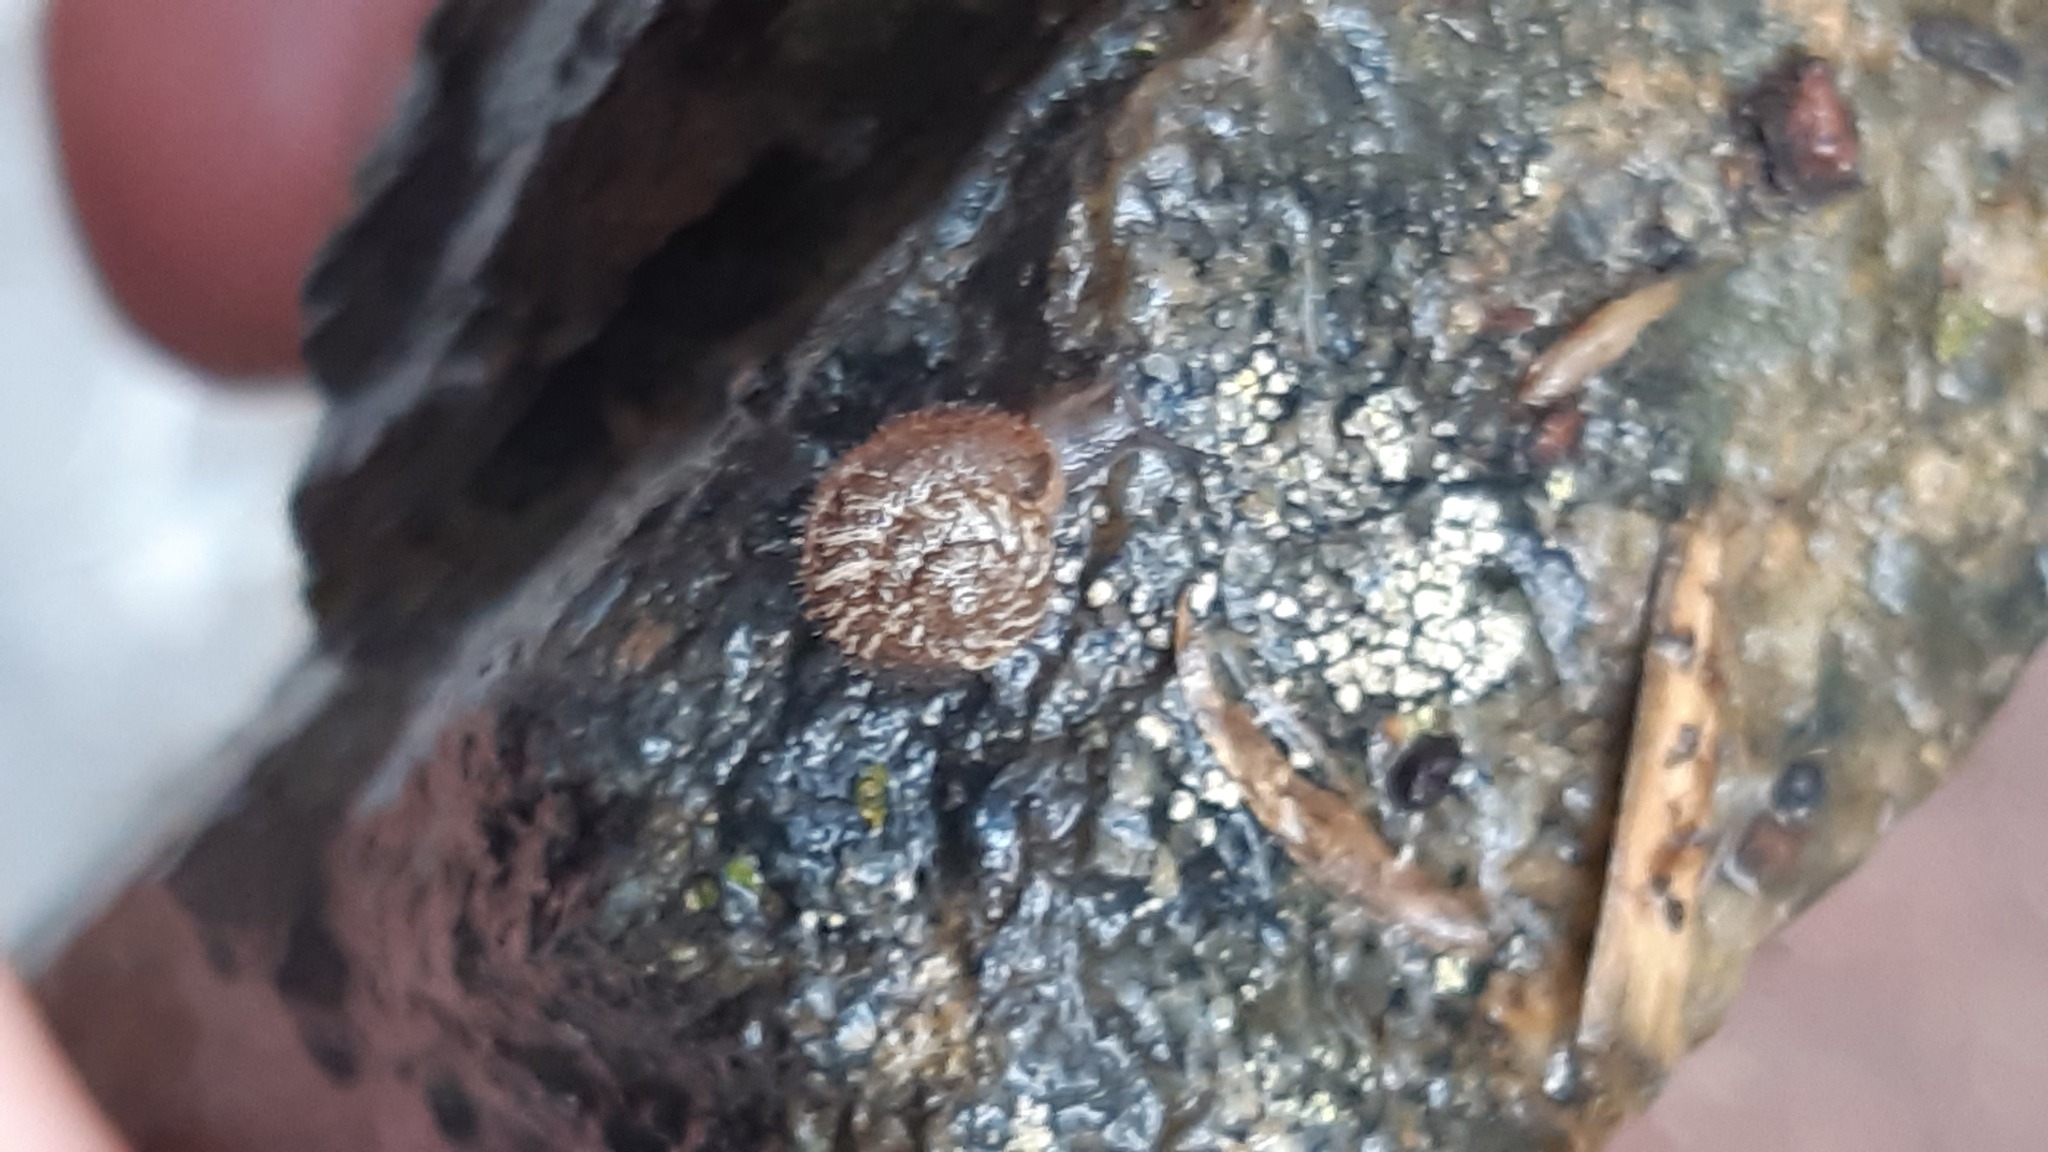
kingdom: Animalia
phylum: Mollusca
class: Gastropoda
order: Stylommatophora
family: Geomitridae
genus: Xerotricha
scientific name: Xerotricha conspurcata
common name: Snail
